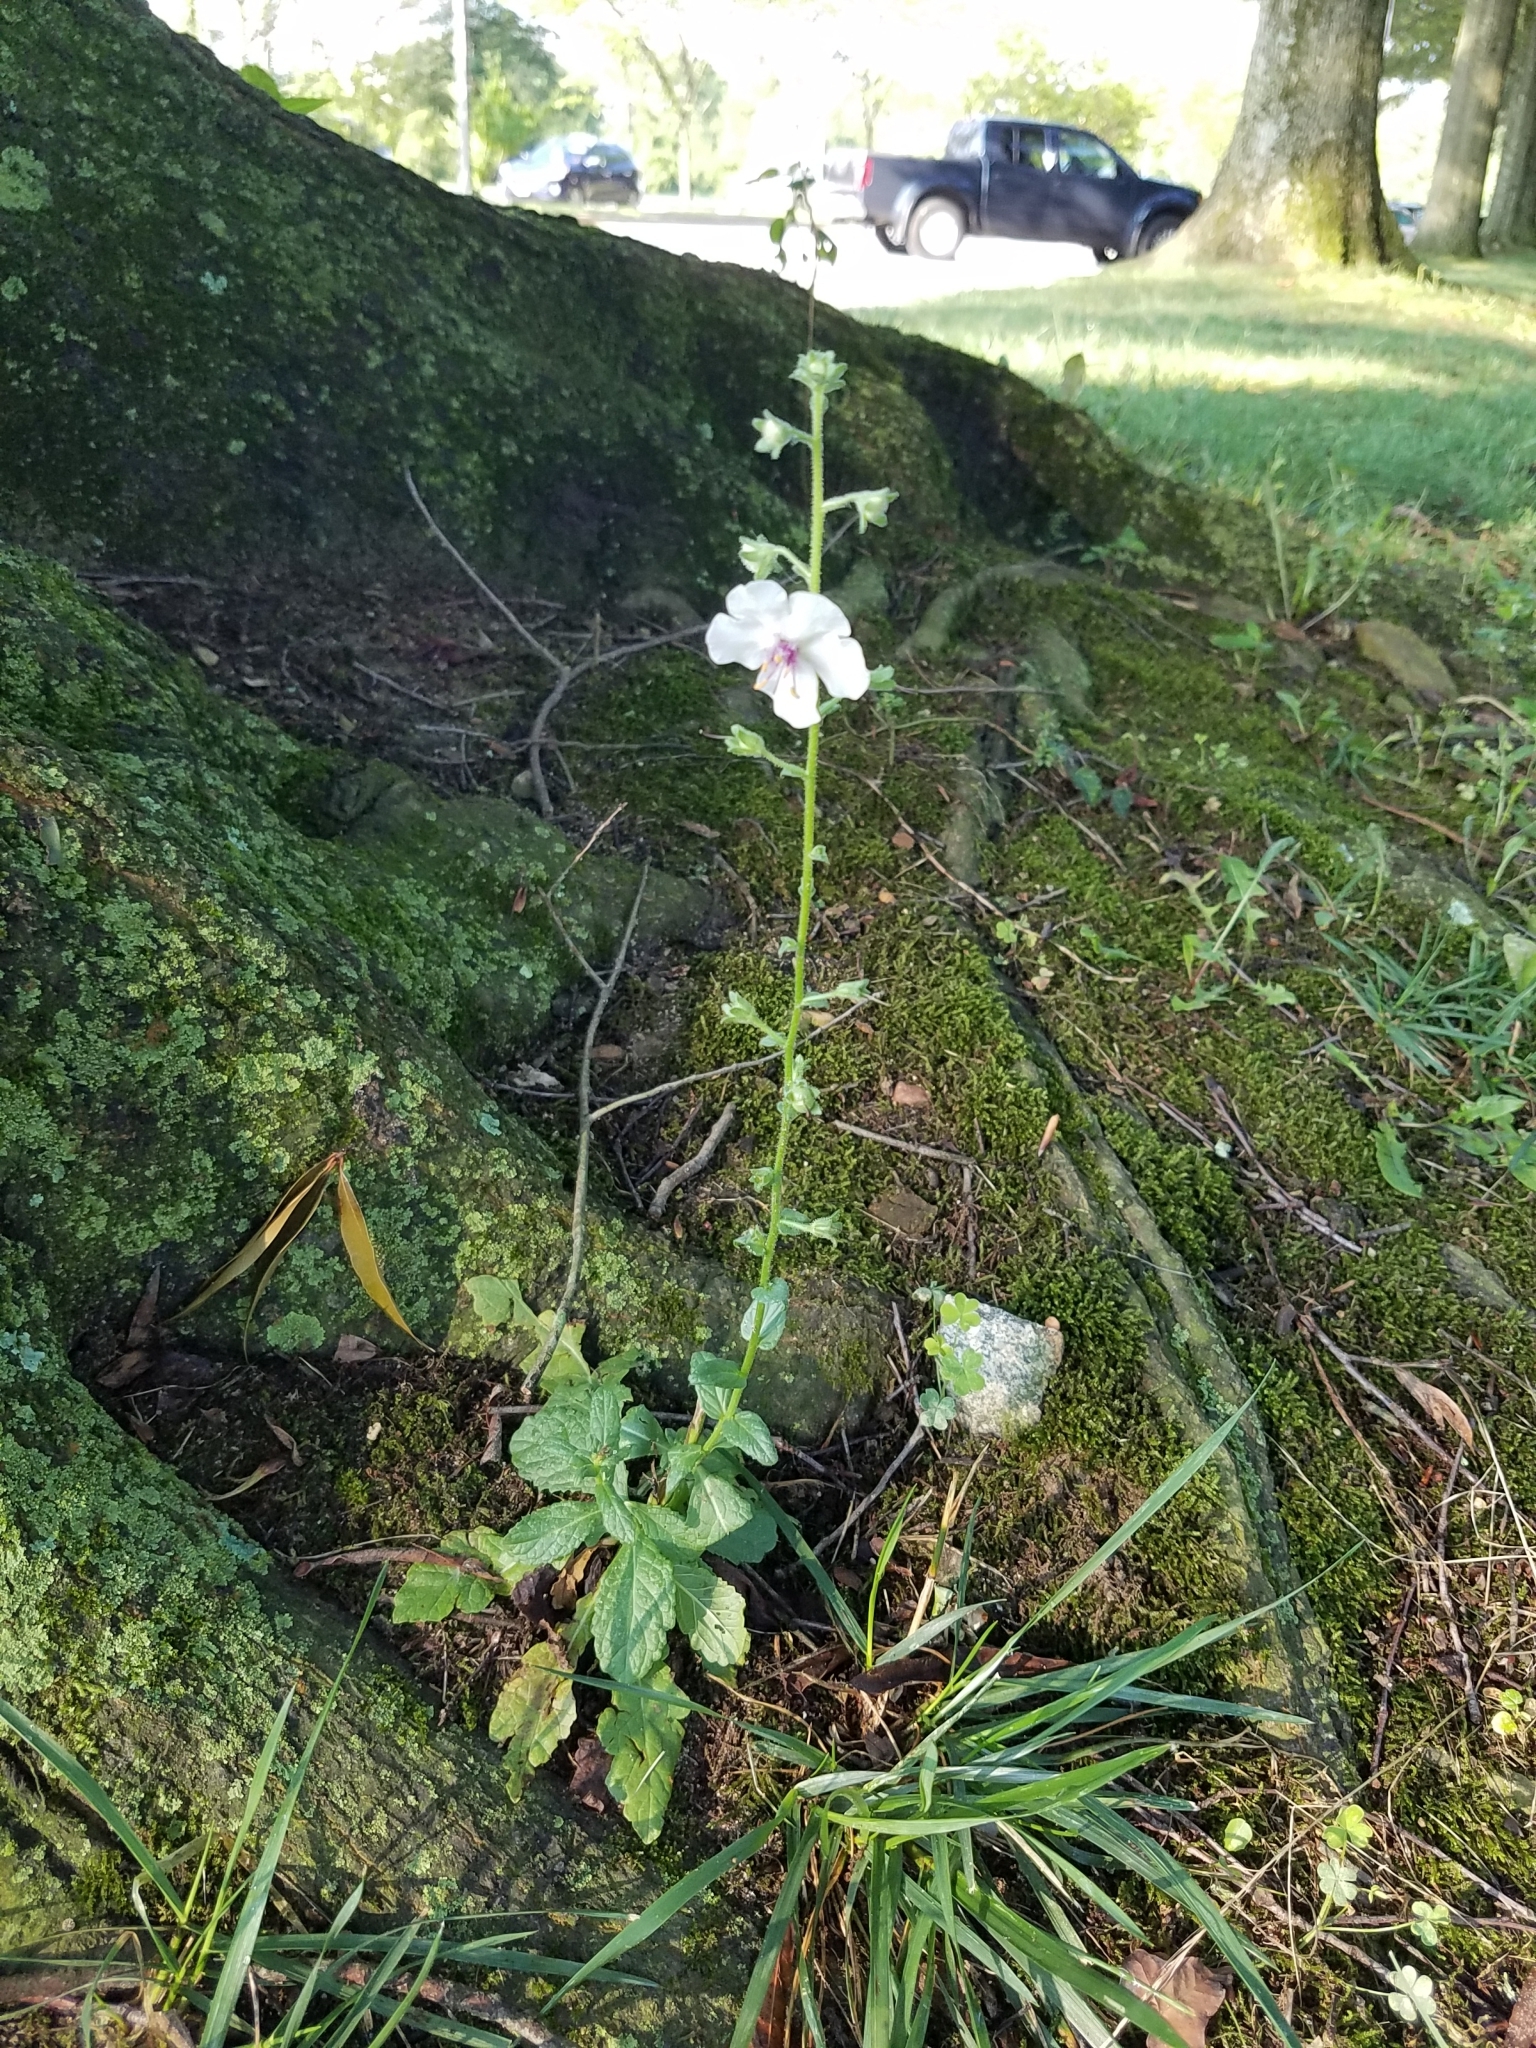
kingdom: Plantae
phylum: Tracheophyta
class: Magnoliopsida
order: Lamiales
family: Scrophulariaceae
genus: Verbascum
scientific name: Verbascum blattaria
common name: Moth mullein
